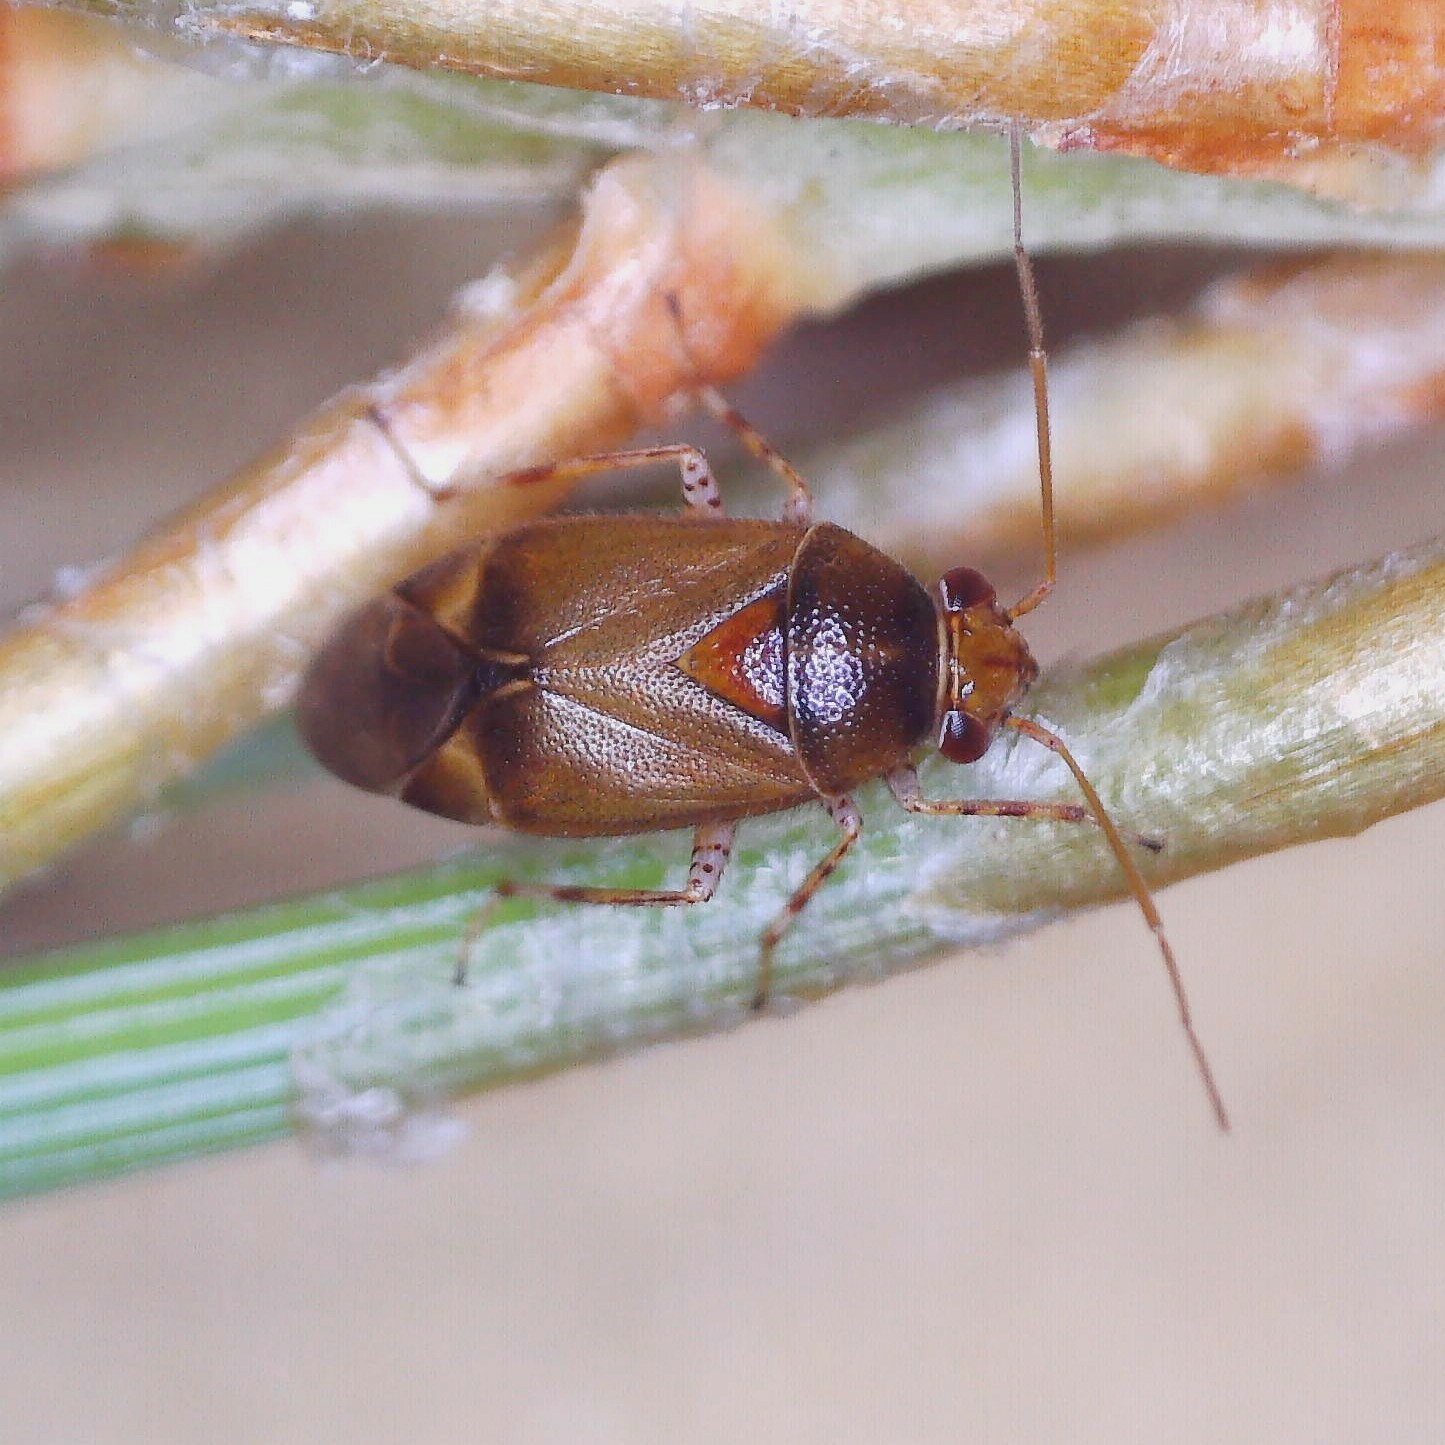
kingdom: Animalia
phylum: Arthropoda
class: Insecta
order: Hemiptera
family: Miridae
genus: Camptozygum
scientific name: Camptozygum aequale
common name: Plant bug
